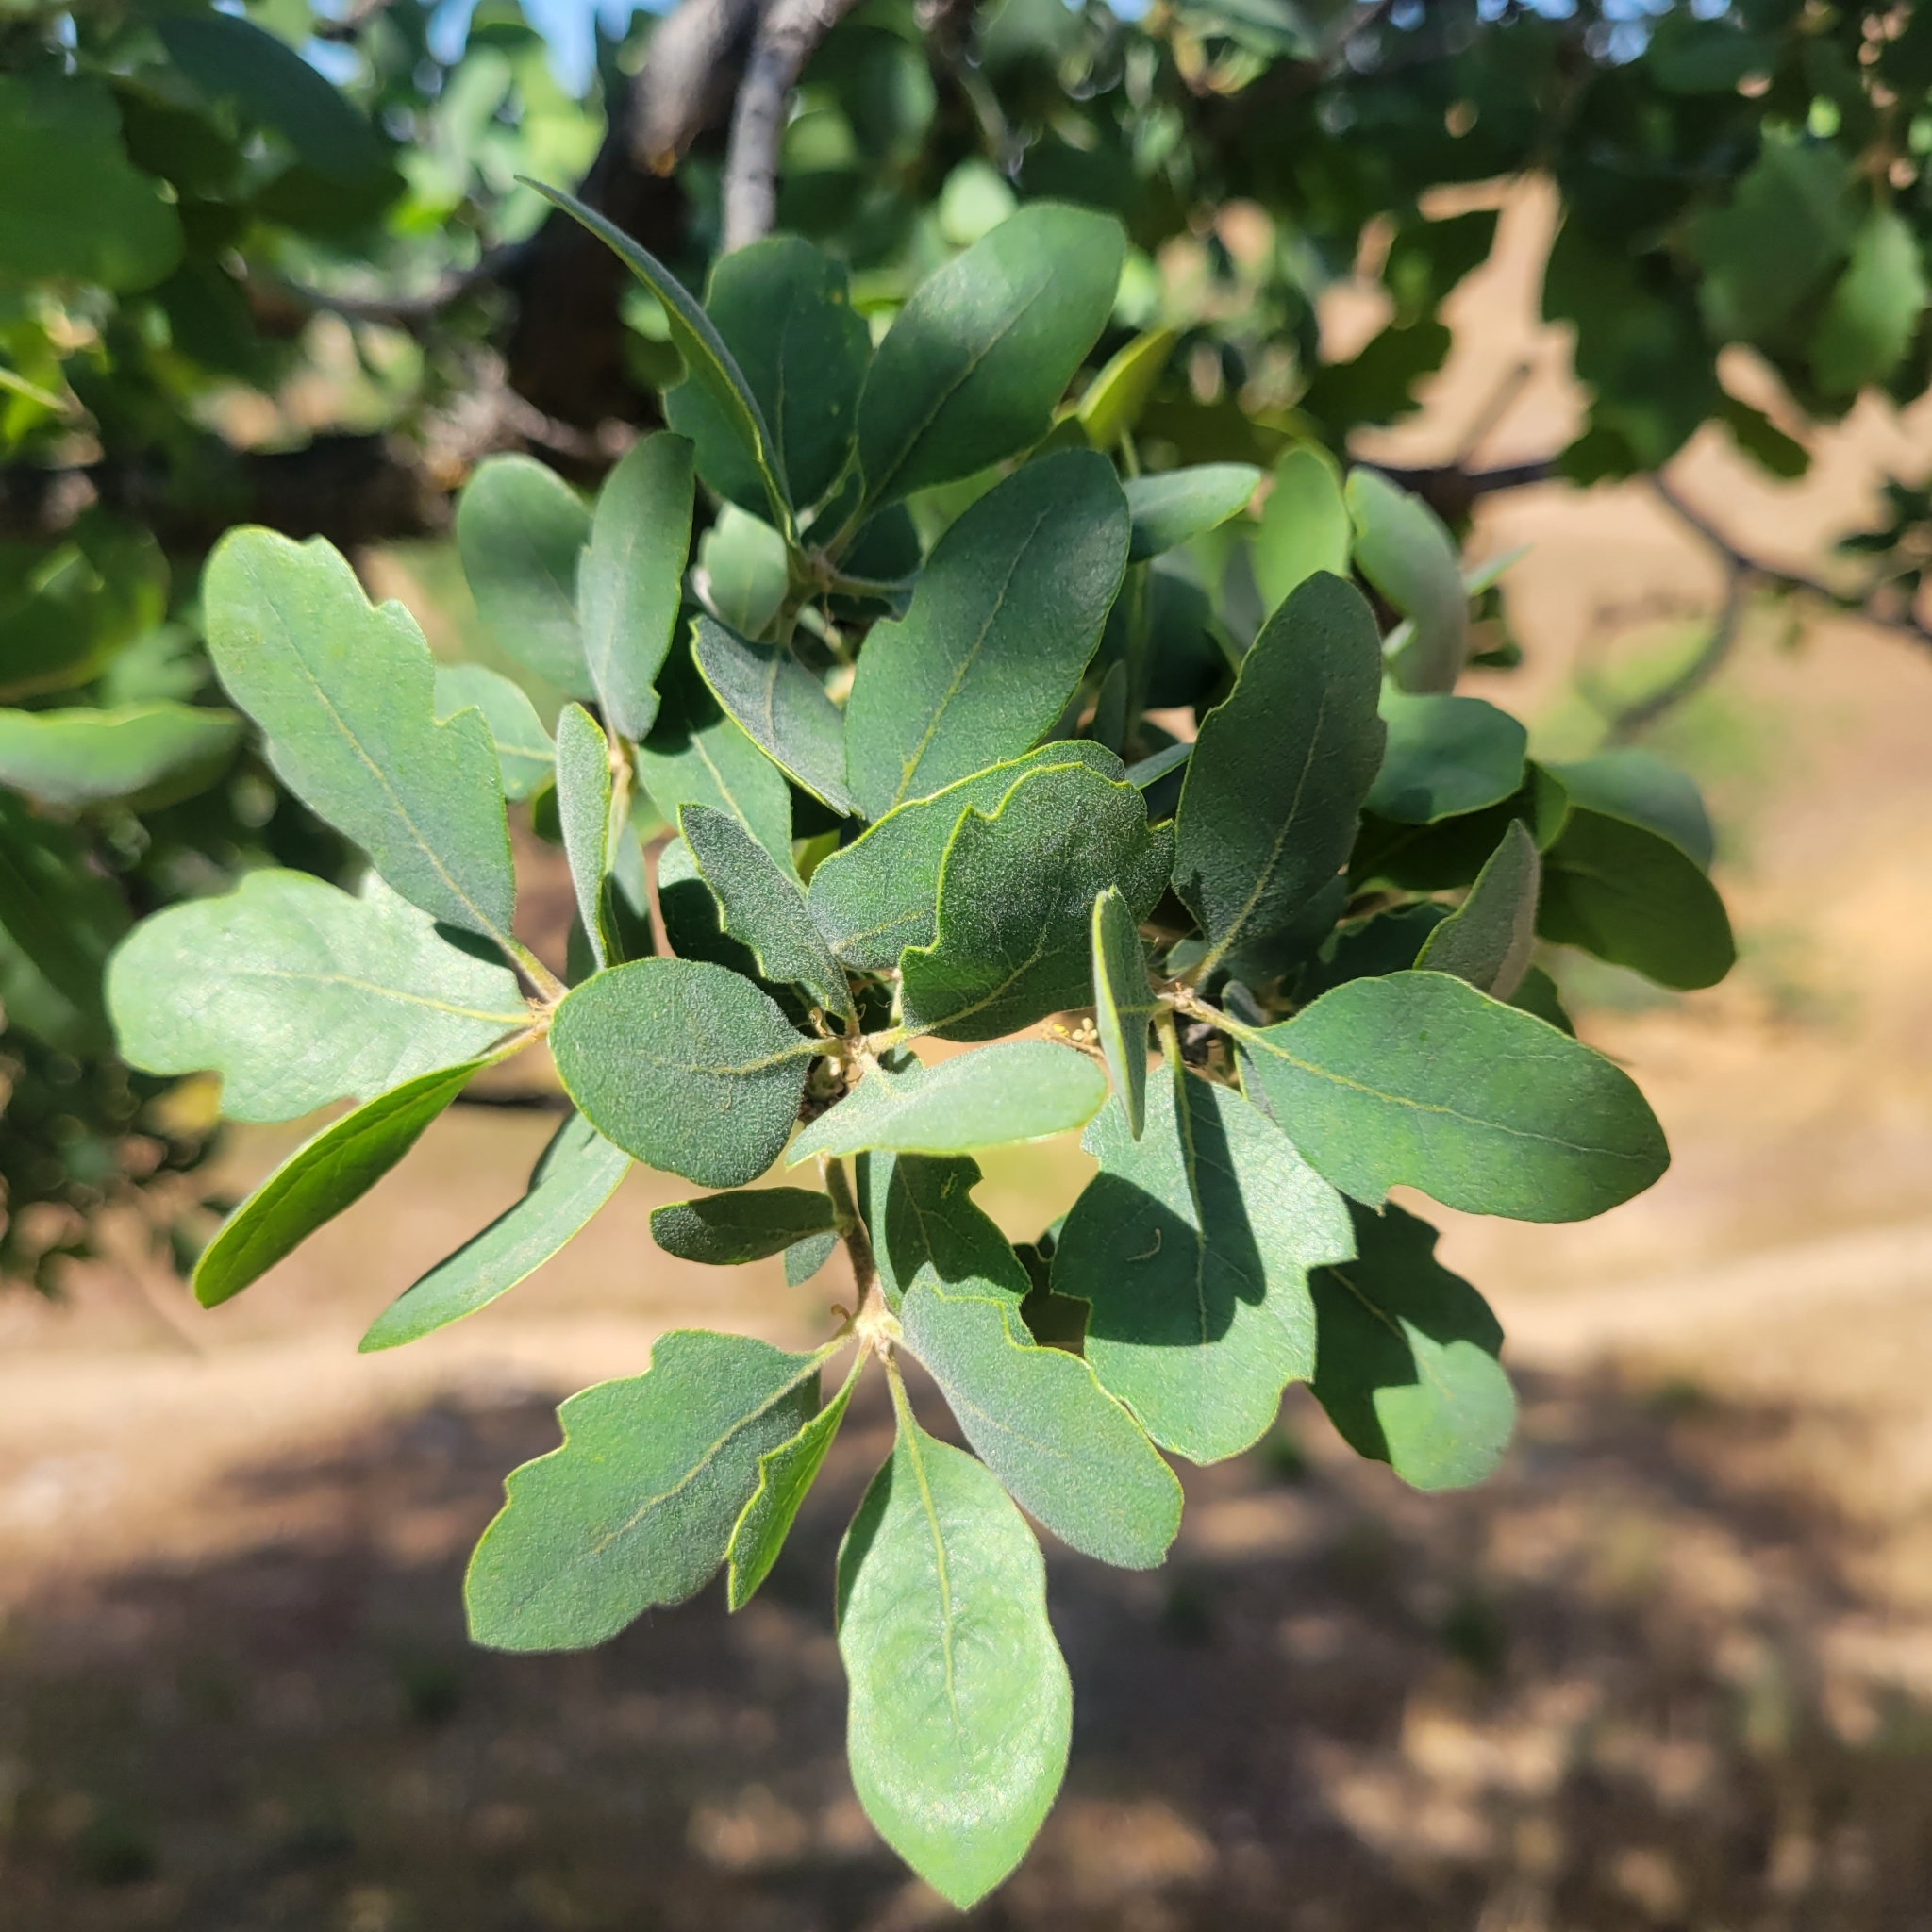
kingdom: Plantae
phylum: Tracheophyta
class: Magnoliopsida
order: Fagales
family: Fagaceae
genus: Quercus
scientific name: Quercus douglasii
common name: Blue oak
